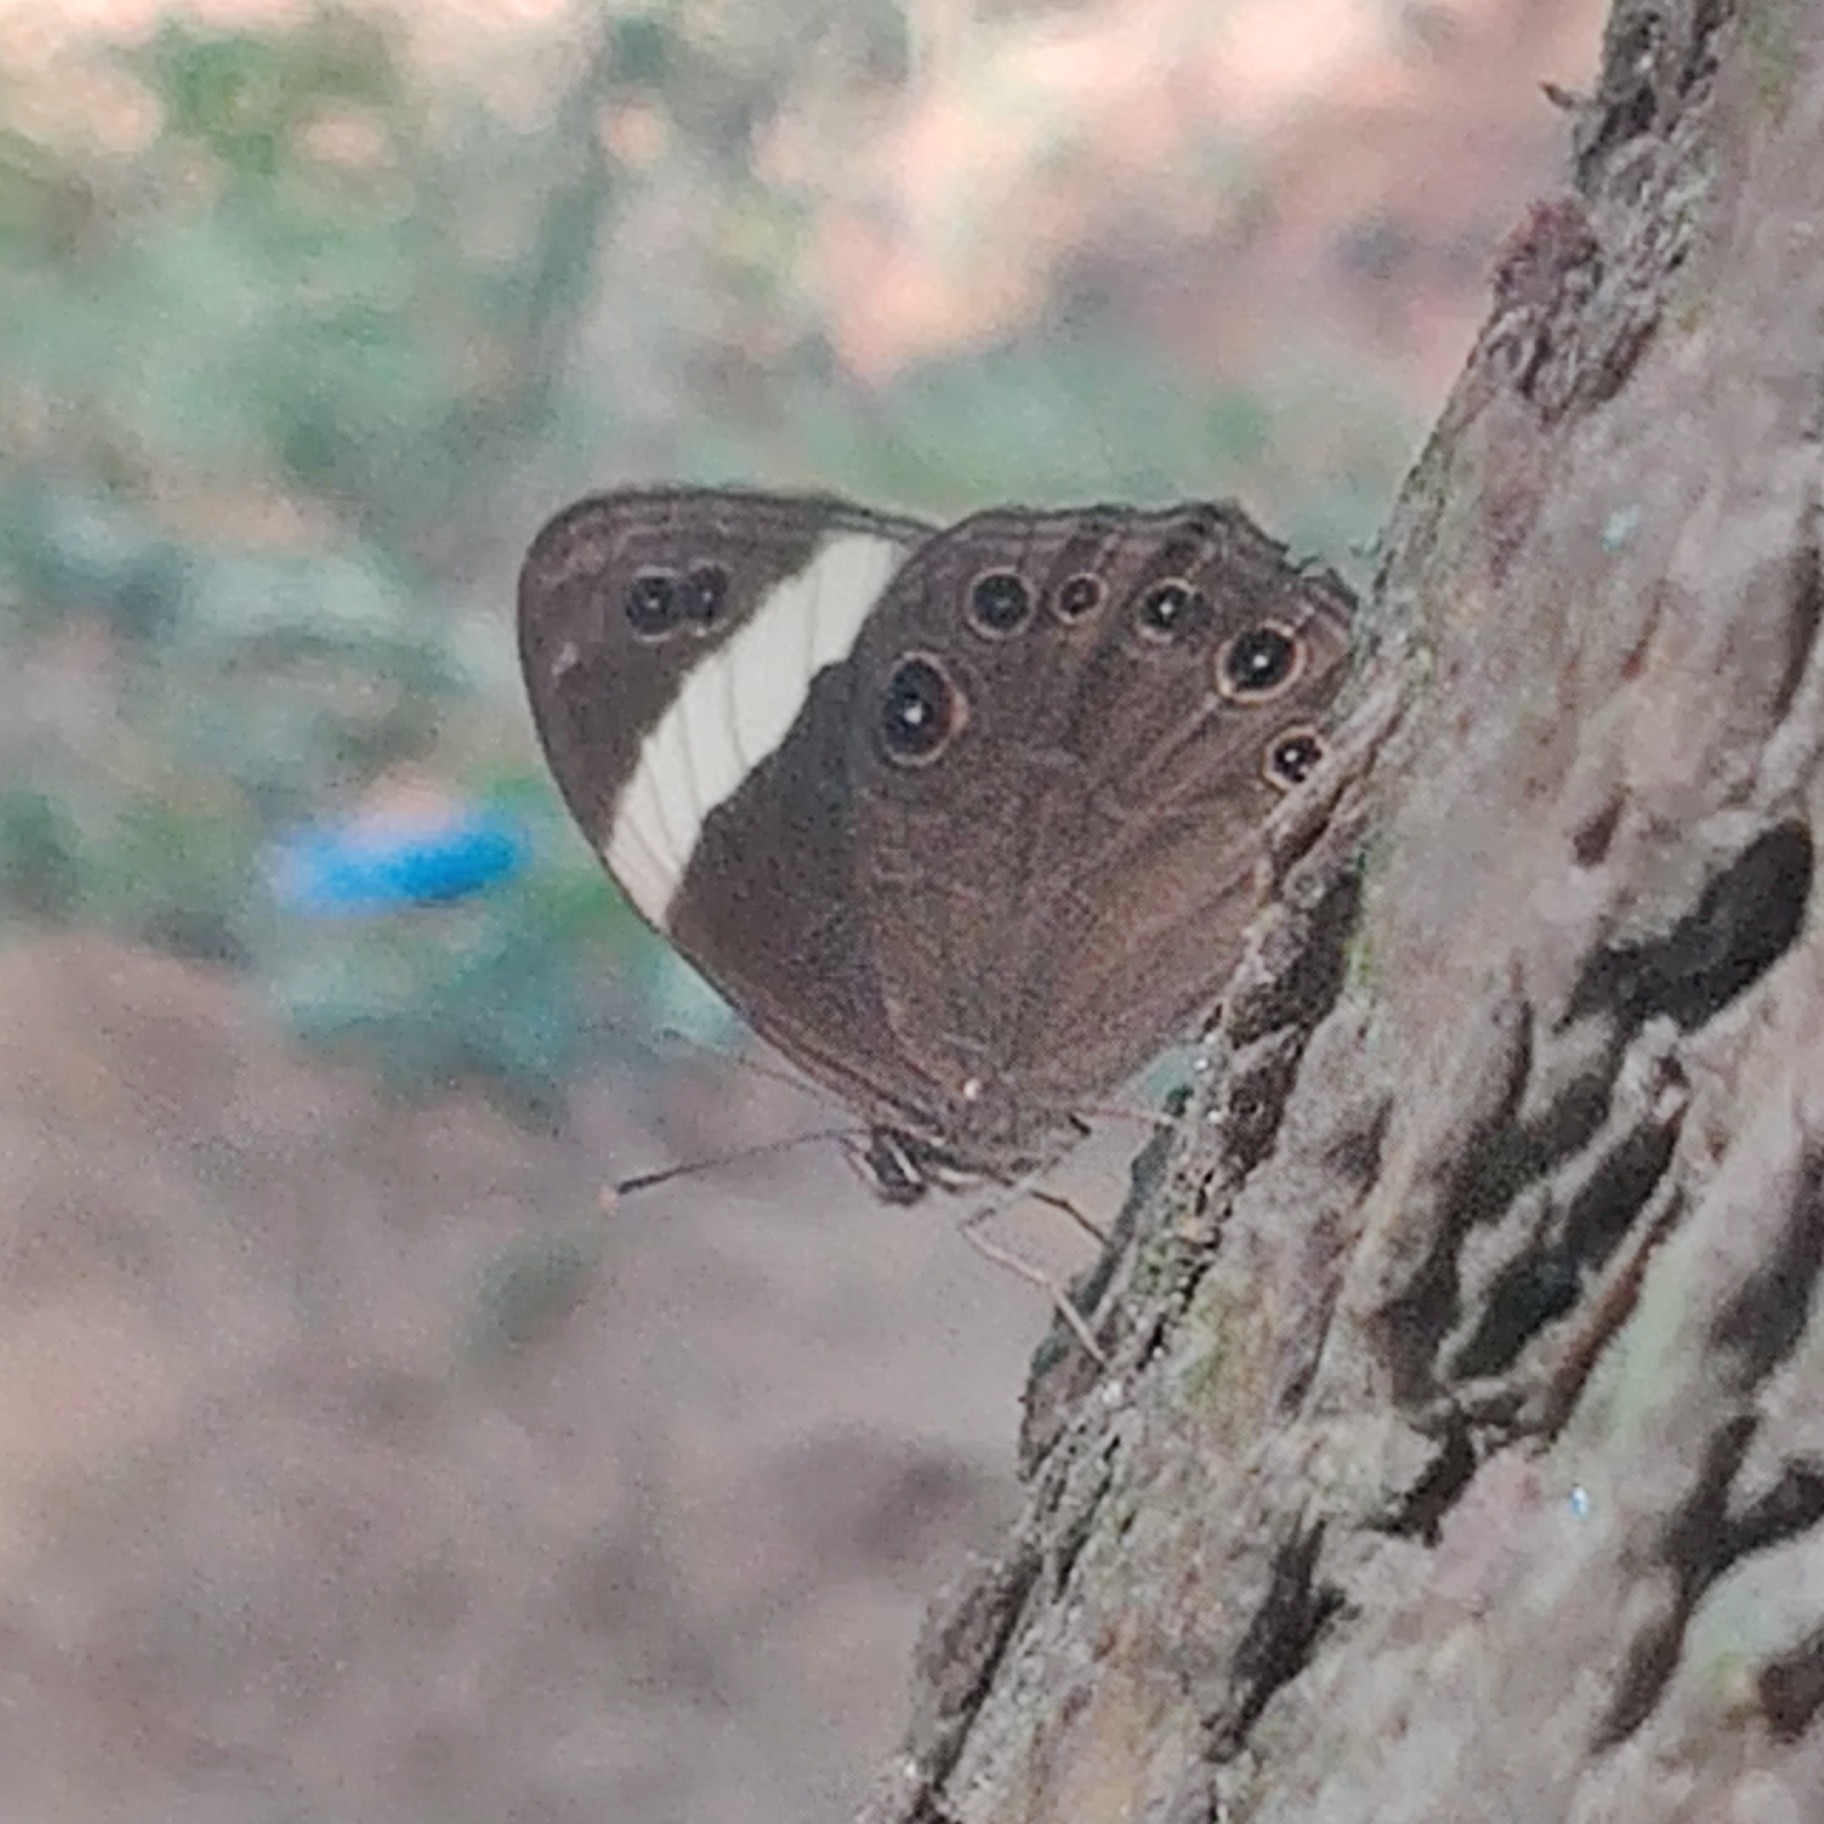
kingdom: Animalia
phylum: Arthropoda
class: Insecta
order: Lepidoptera
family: Nymphalidae
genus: Lethe
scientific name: Lethe verma
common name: Straight-banded treebrown
